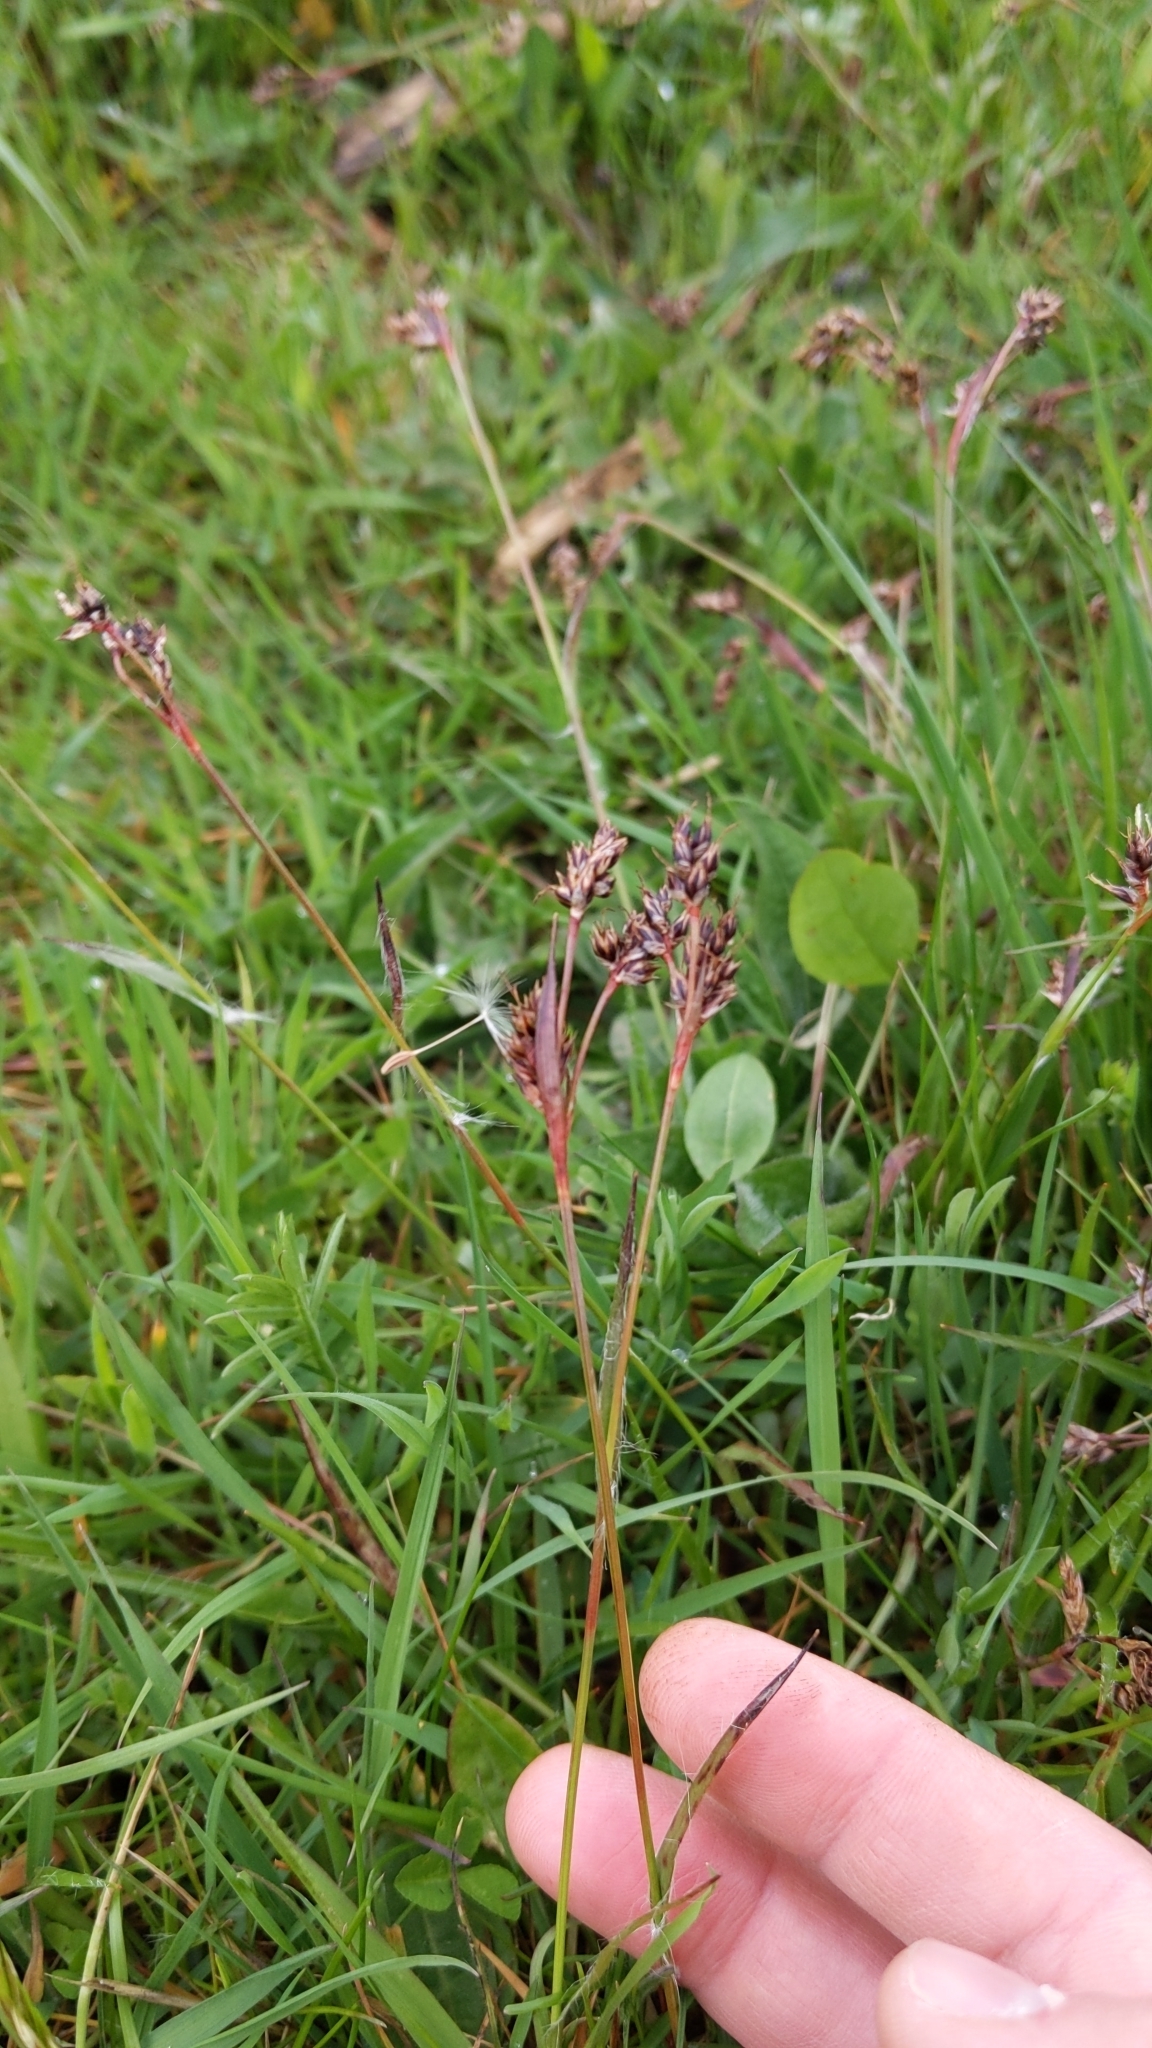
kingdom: Plantae
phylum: Tracheophyta
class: Liliopsida
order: Poales
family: Juncaceae
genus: Luzula
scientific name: Luzula campestris
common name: Field wood-rush
